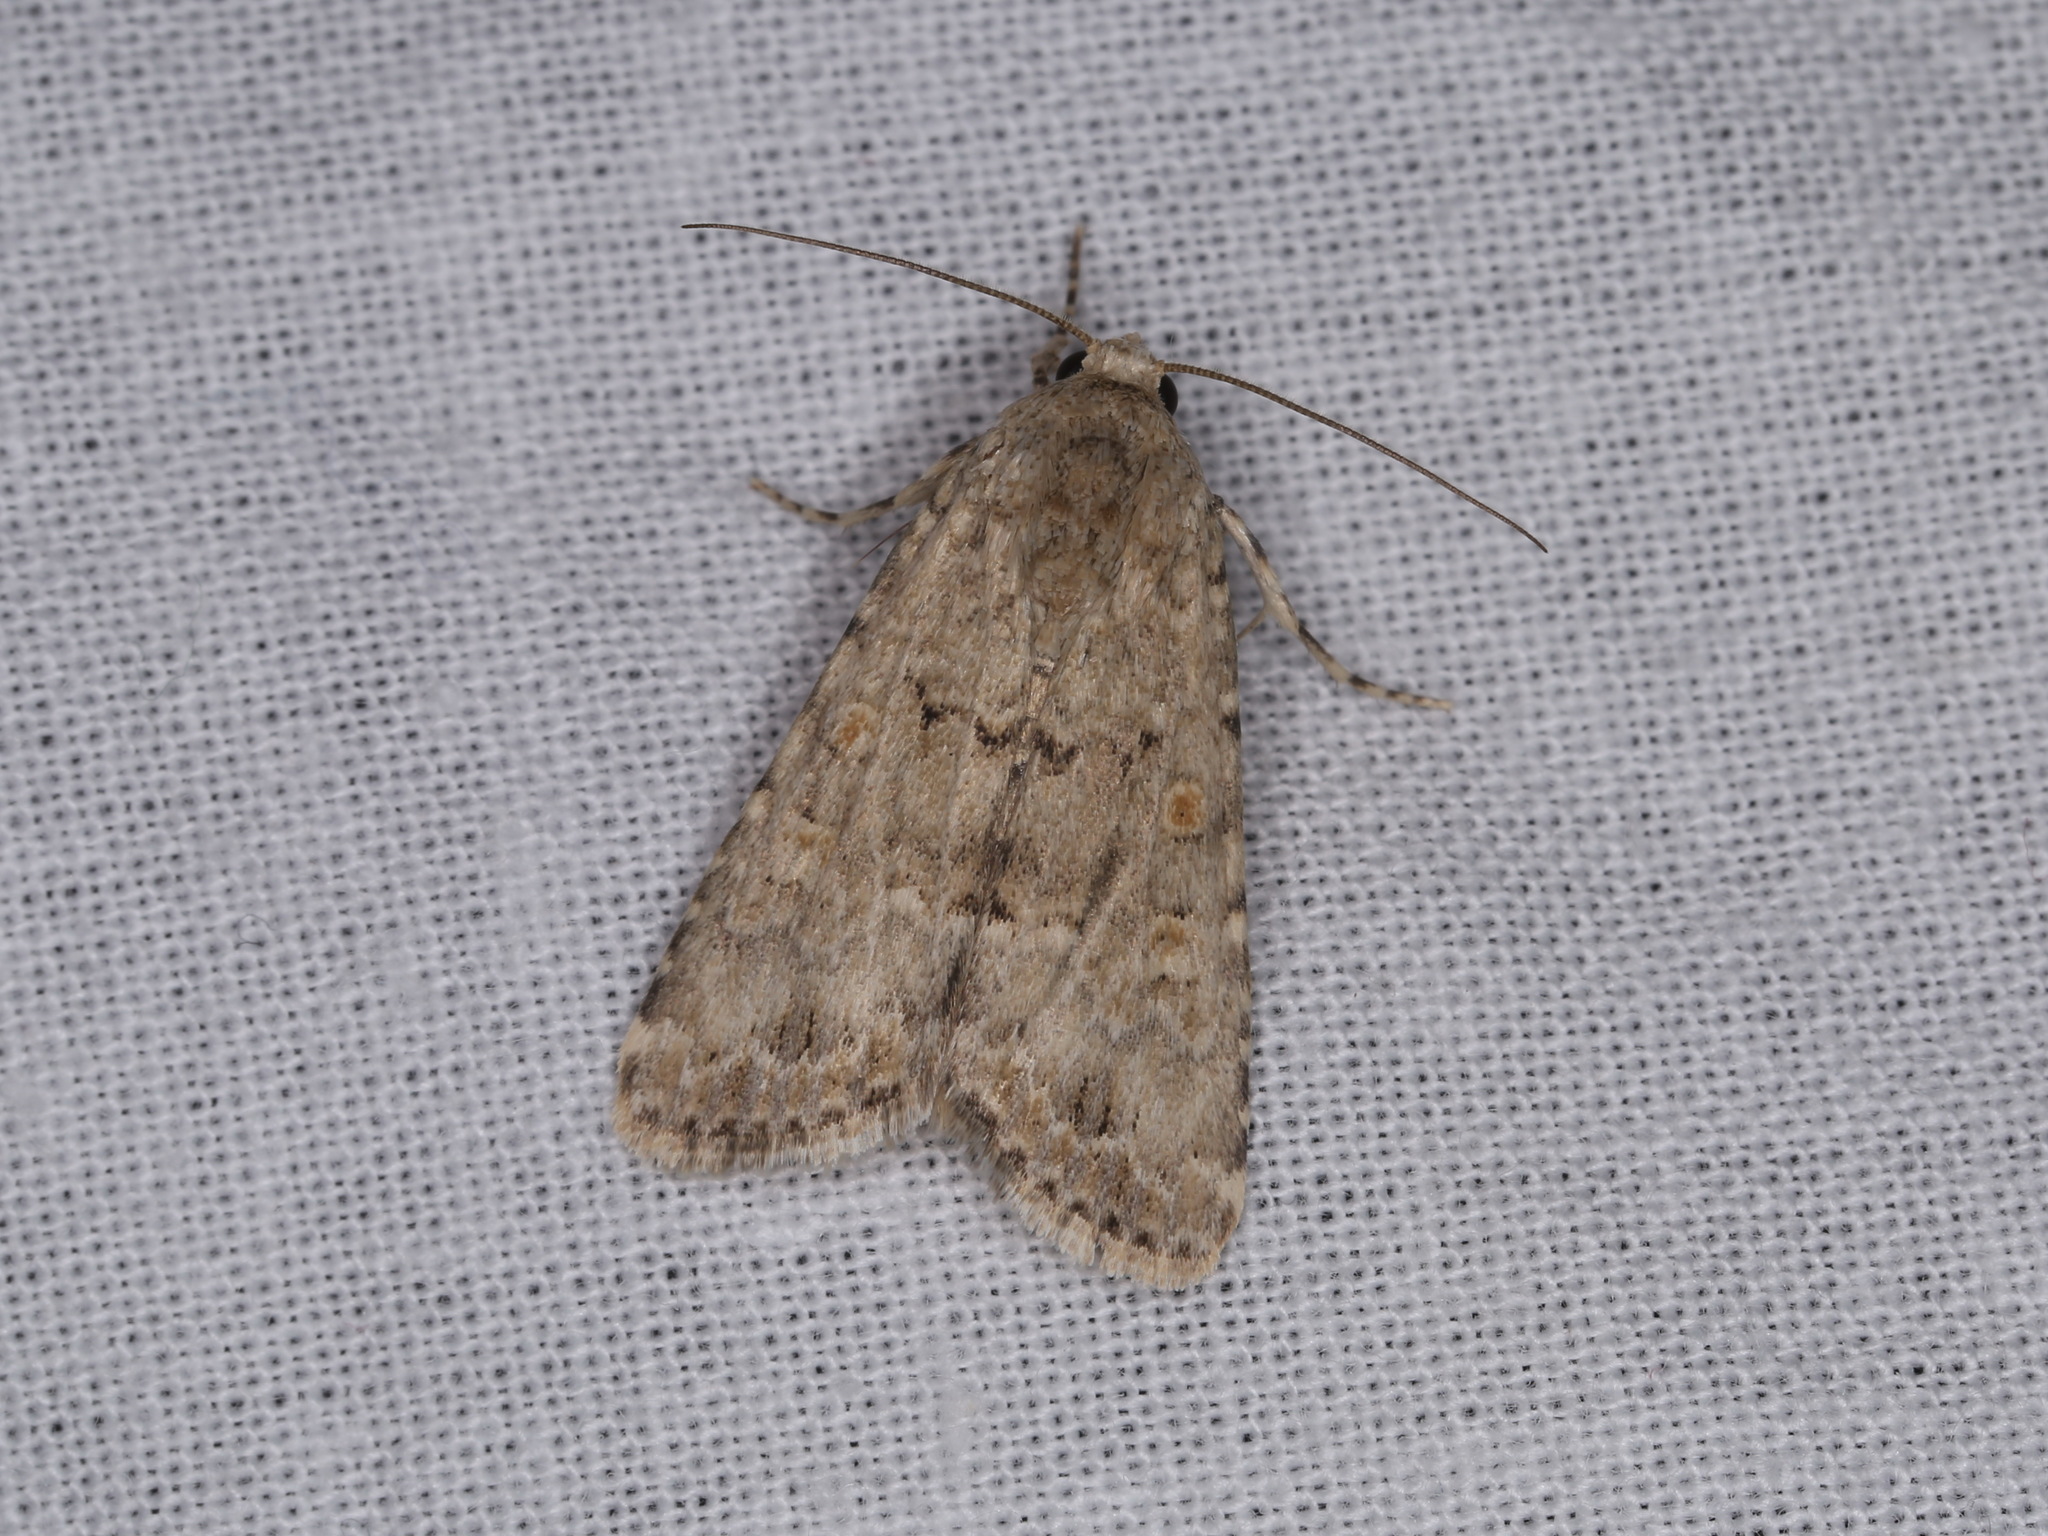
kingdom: Animalia
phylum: Arthropoda
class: Insecta
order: Lepidoptera
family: Noctuidae
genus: Spodoptera
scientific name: Spodoptera exigua
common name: Beet armyworm
